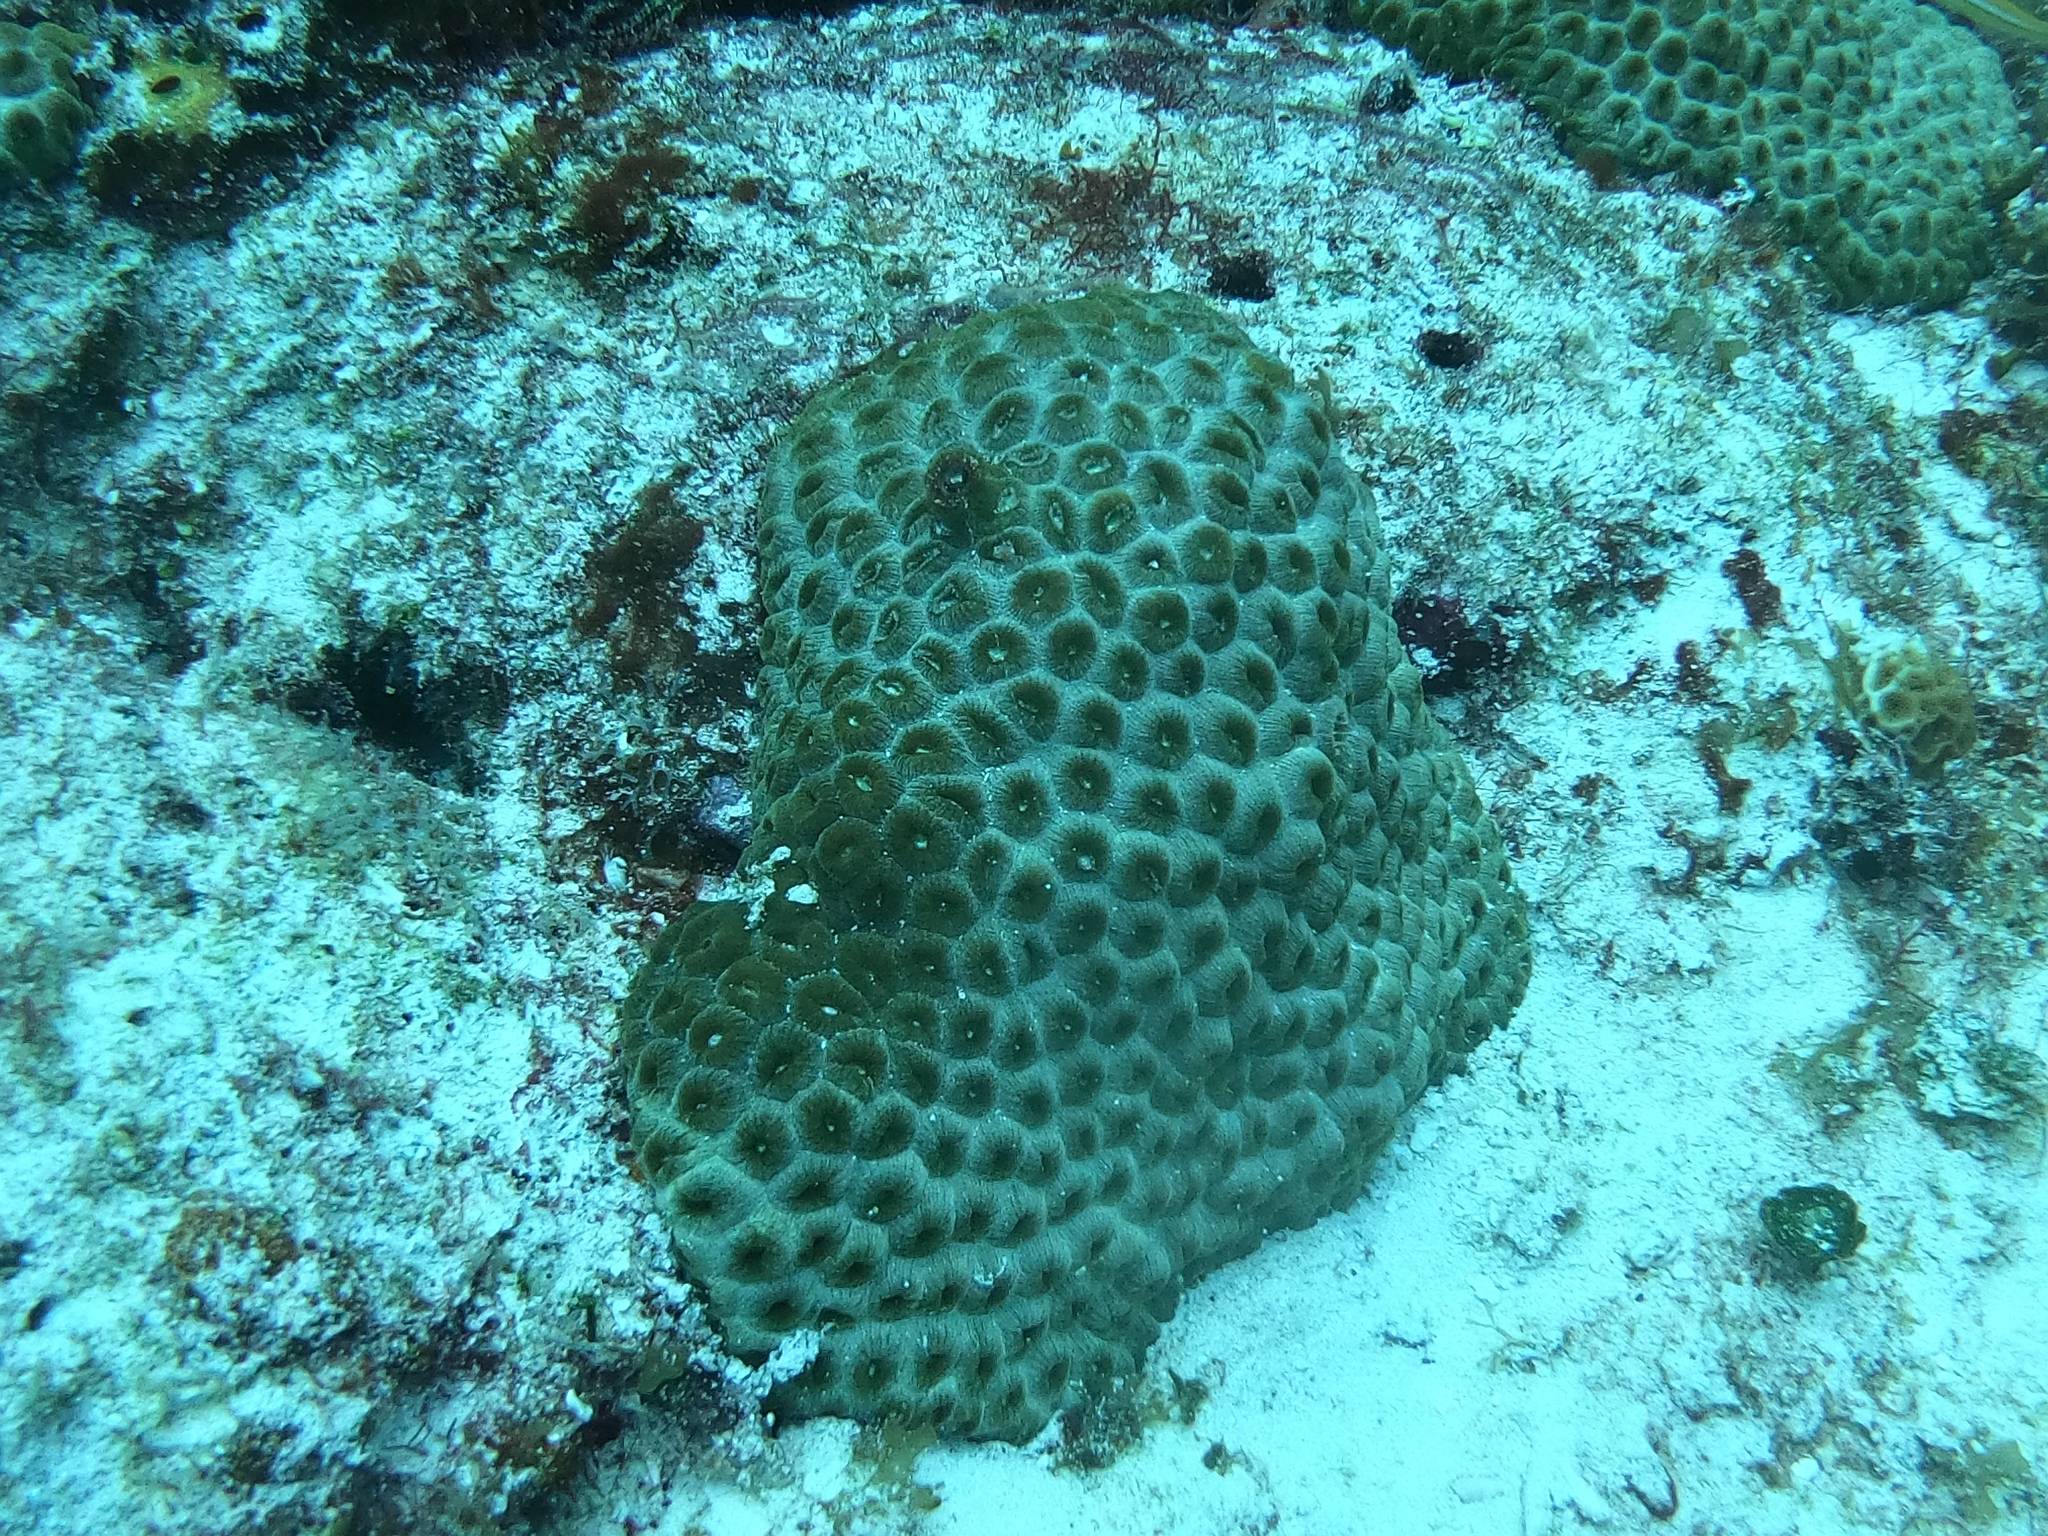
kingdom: Animalia
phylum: Cnidaria
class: Anthozoa
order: Scleractinia
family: Montastraeidae
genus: Montastraea
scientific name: Montastraea cavernosa
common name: Great star coral
